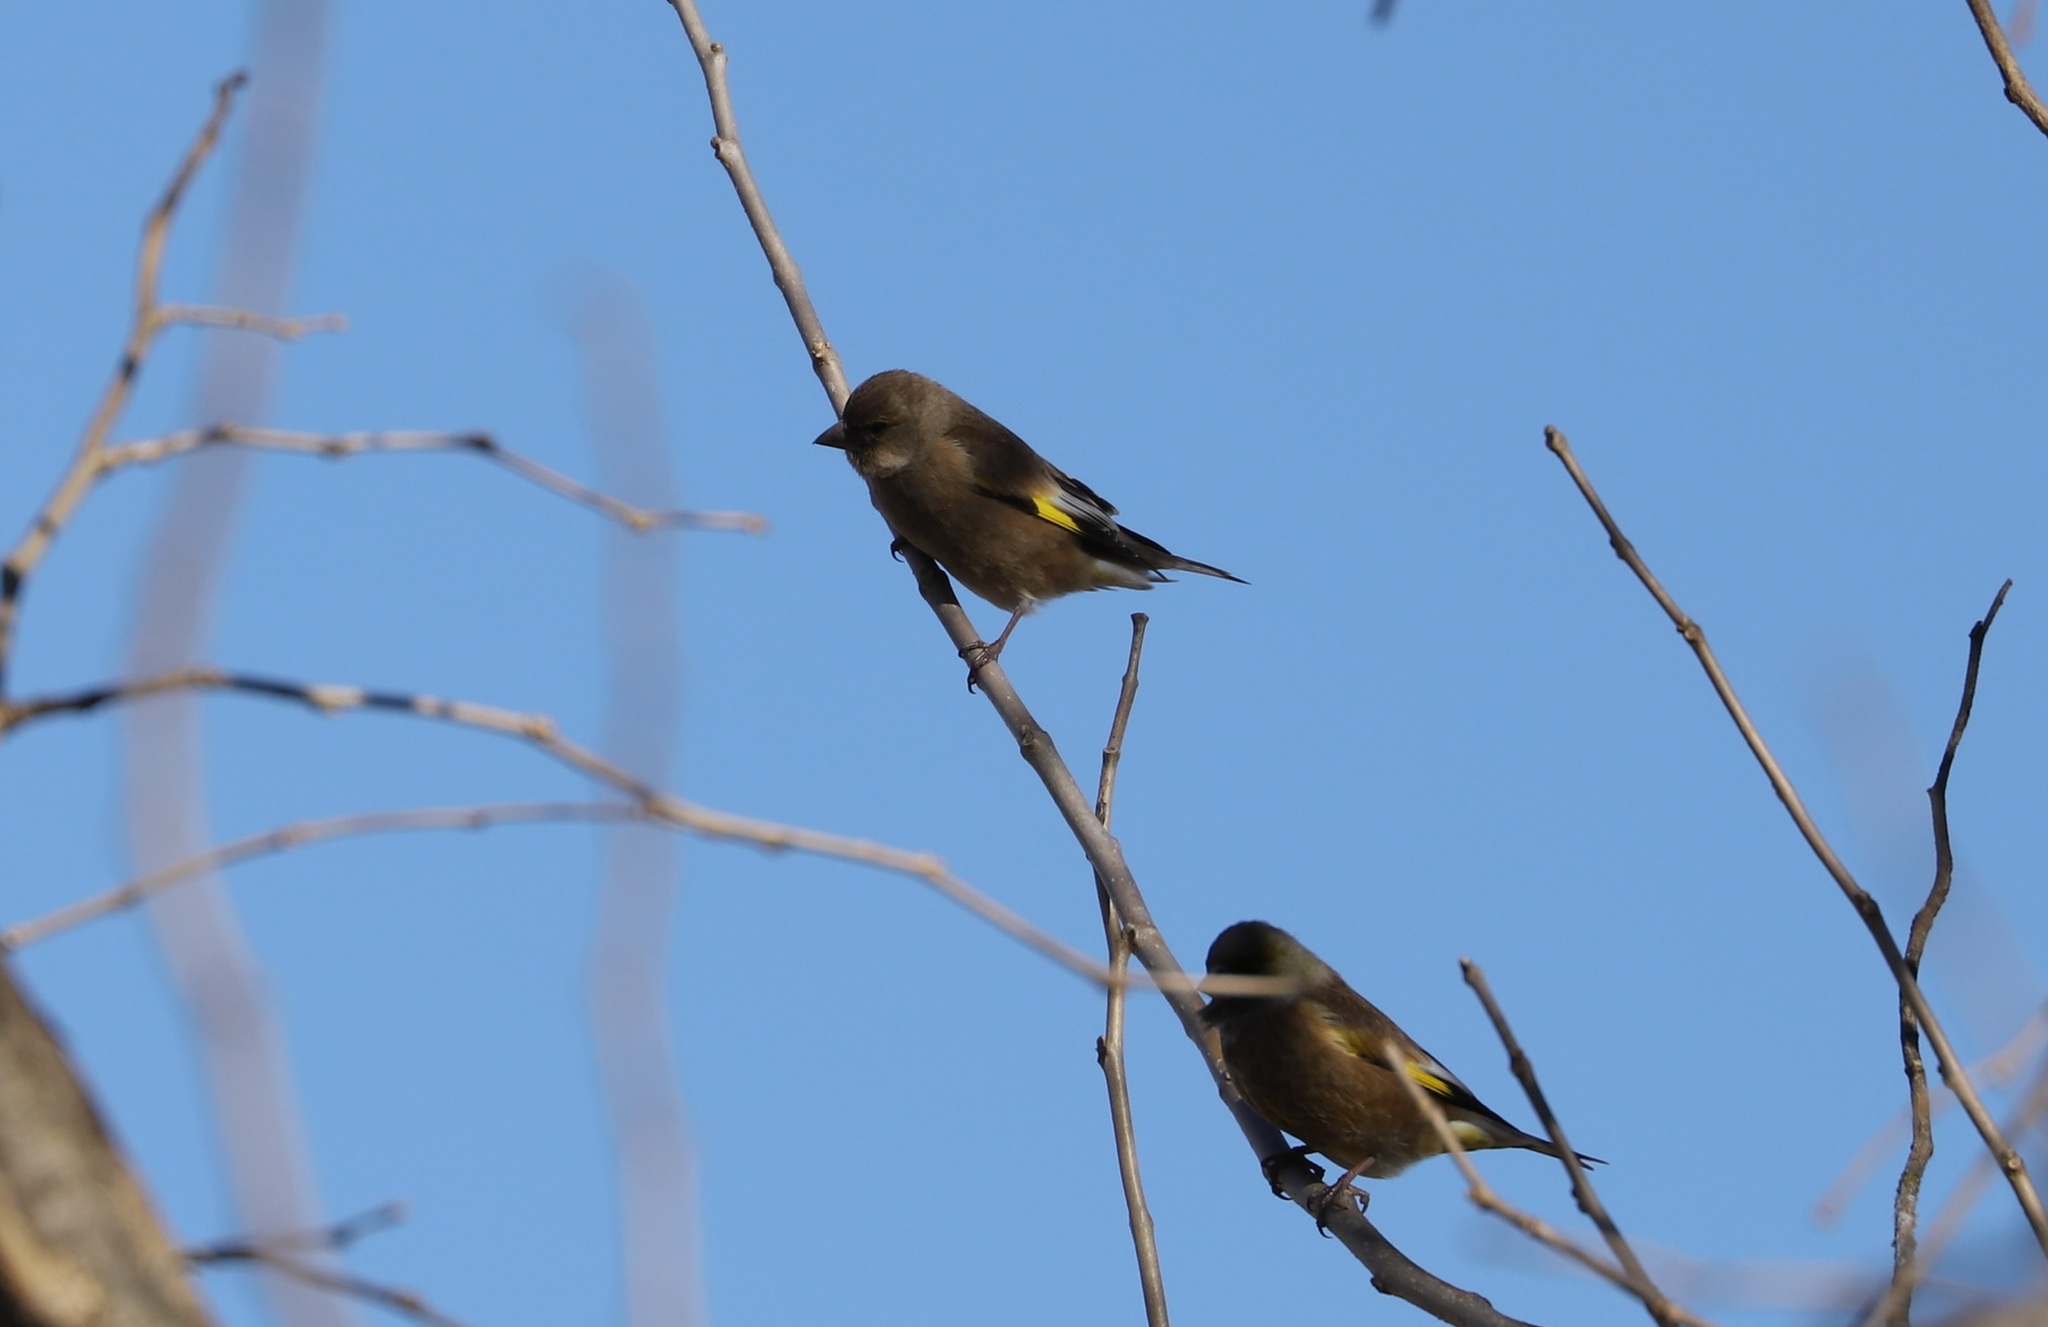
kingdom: Plantae
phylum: Tracheophyta
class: Liliopsida
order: Poales
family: Poaceae
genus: Chloris
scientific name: Chloris sinica
